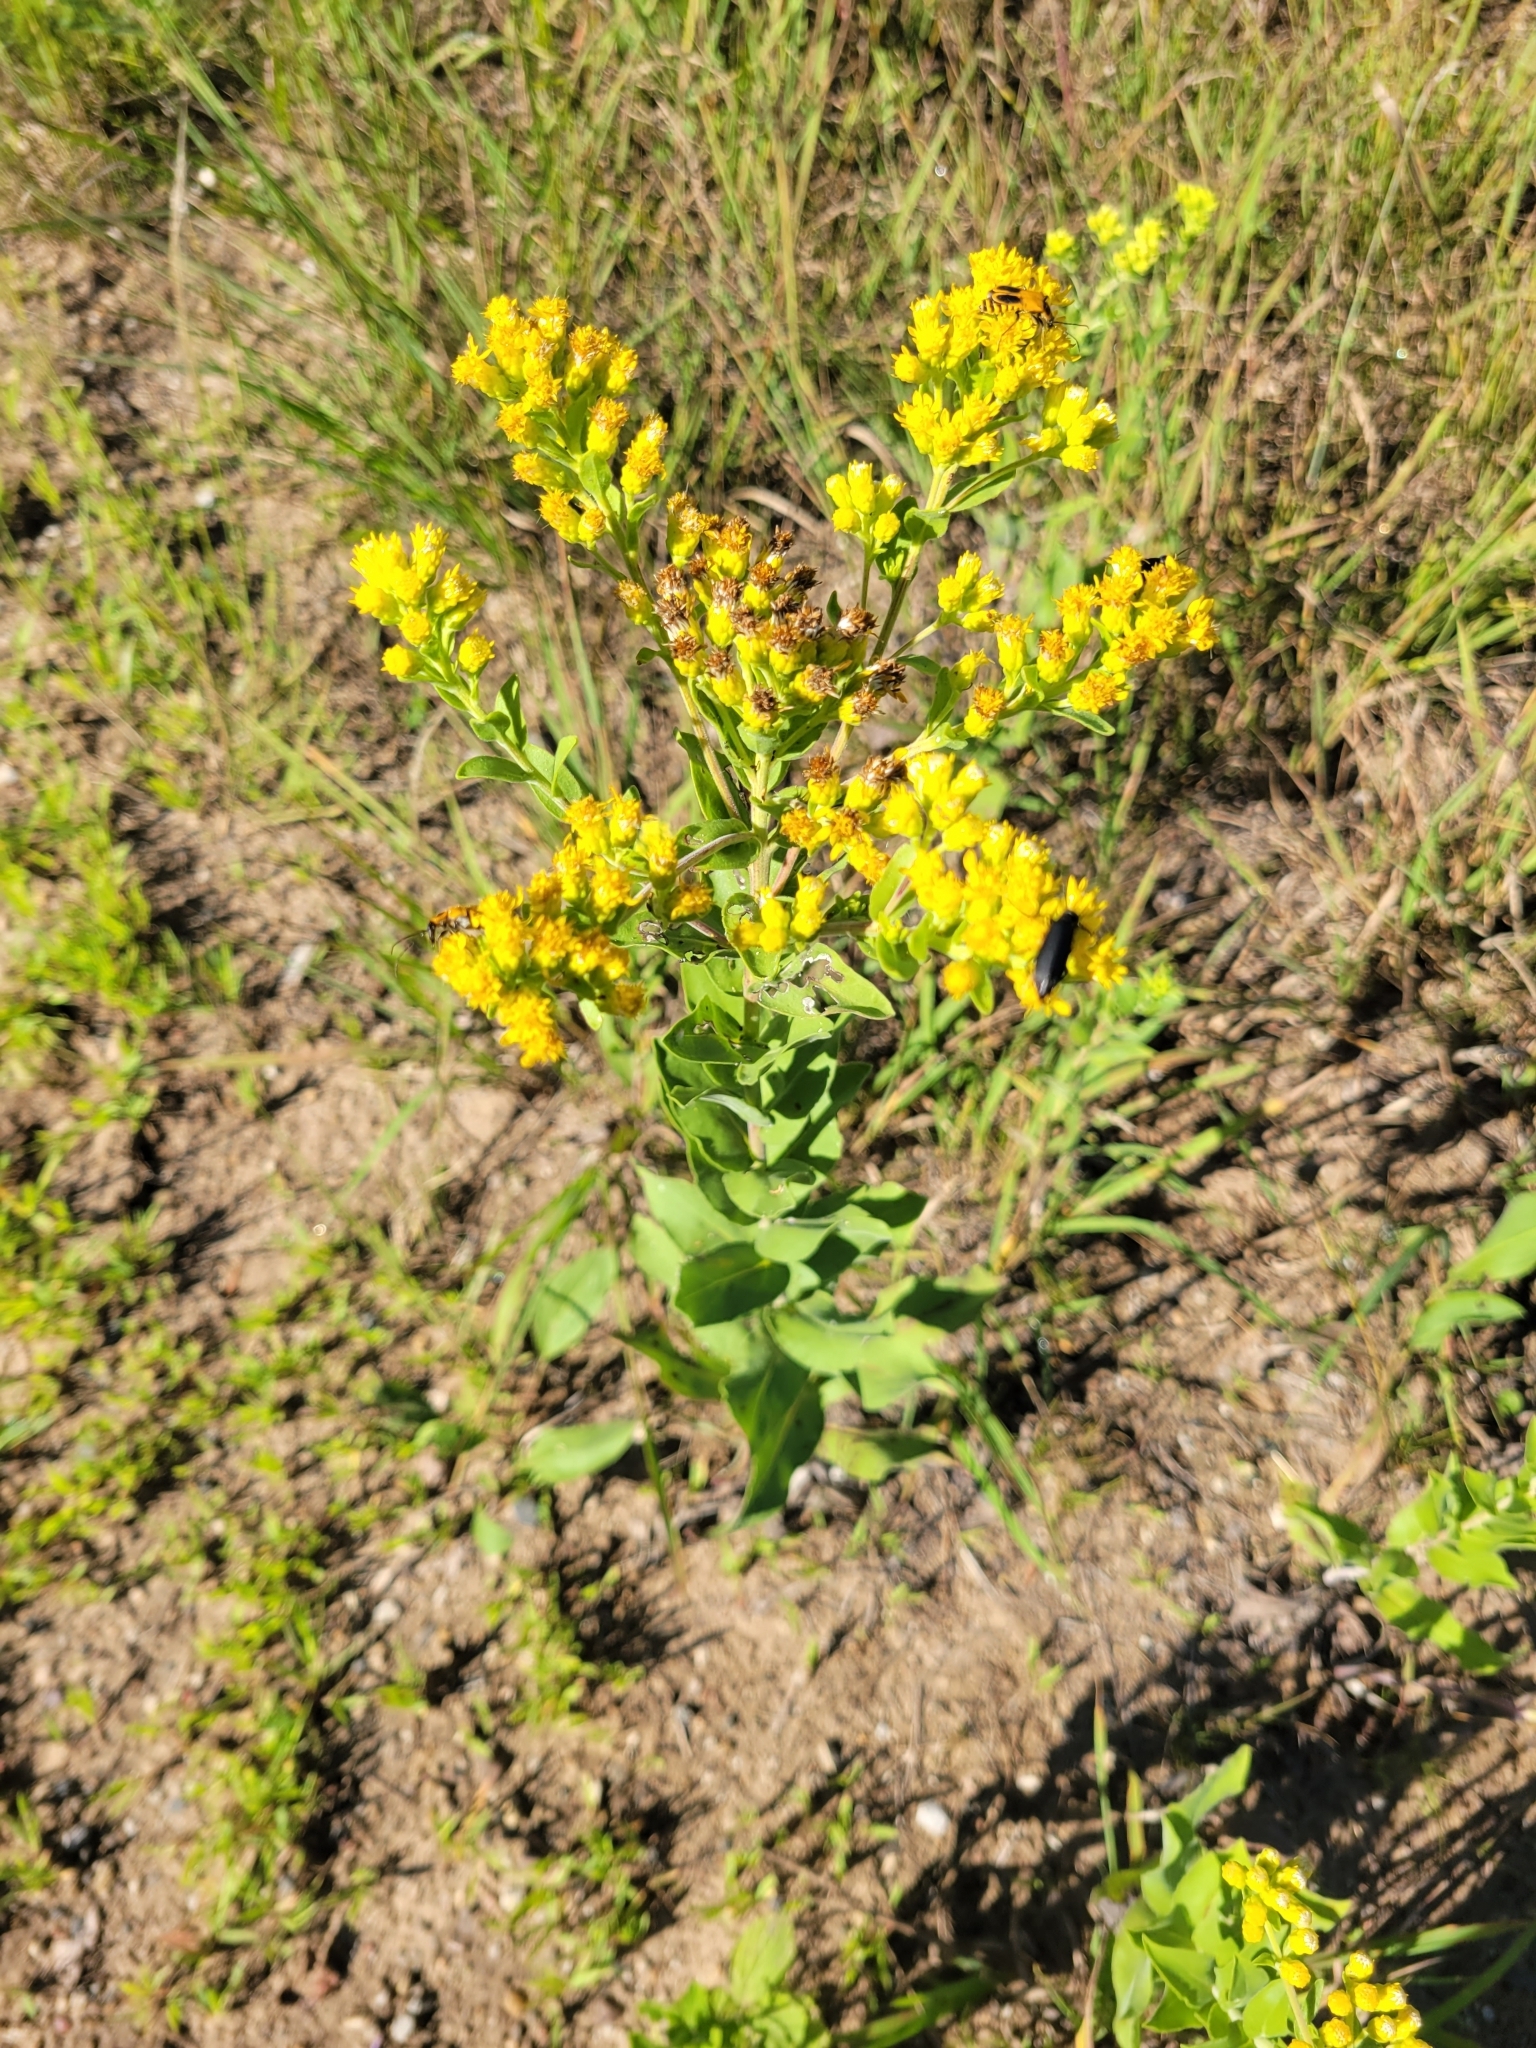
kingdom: Plantae
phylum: Tracheophyta
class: Magnoliopsida
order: Asterales
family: Asteraceae
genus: Solidago
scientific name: Solidago rigida
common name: Rigid goldenrod
